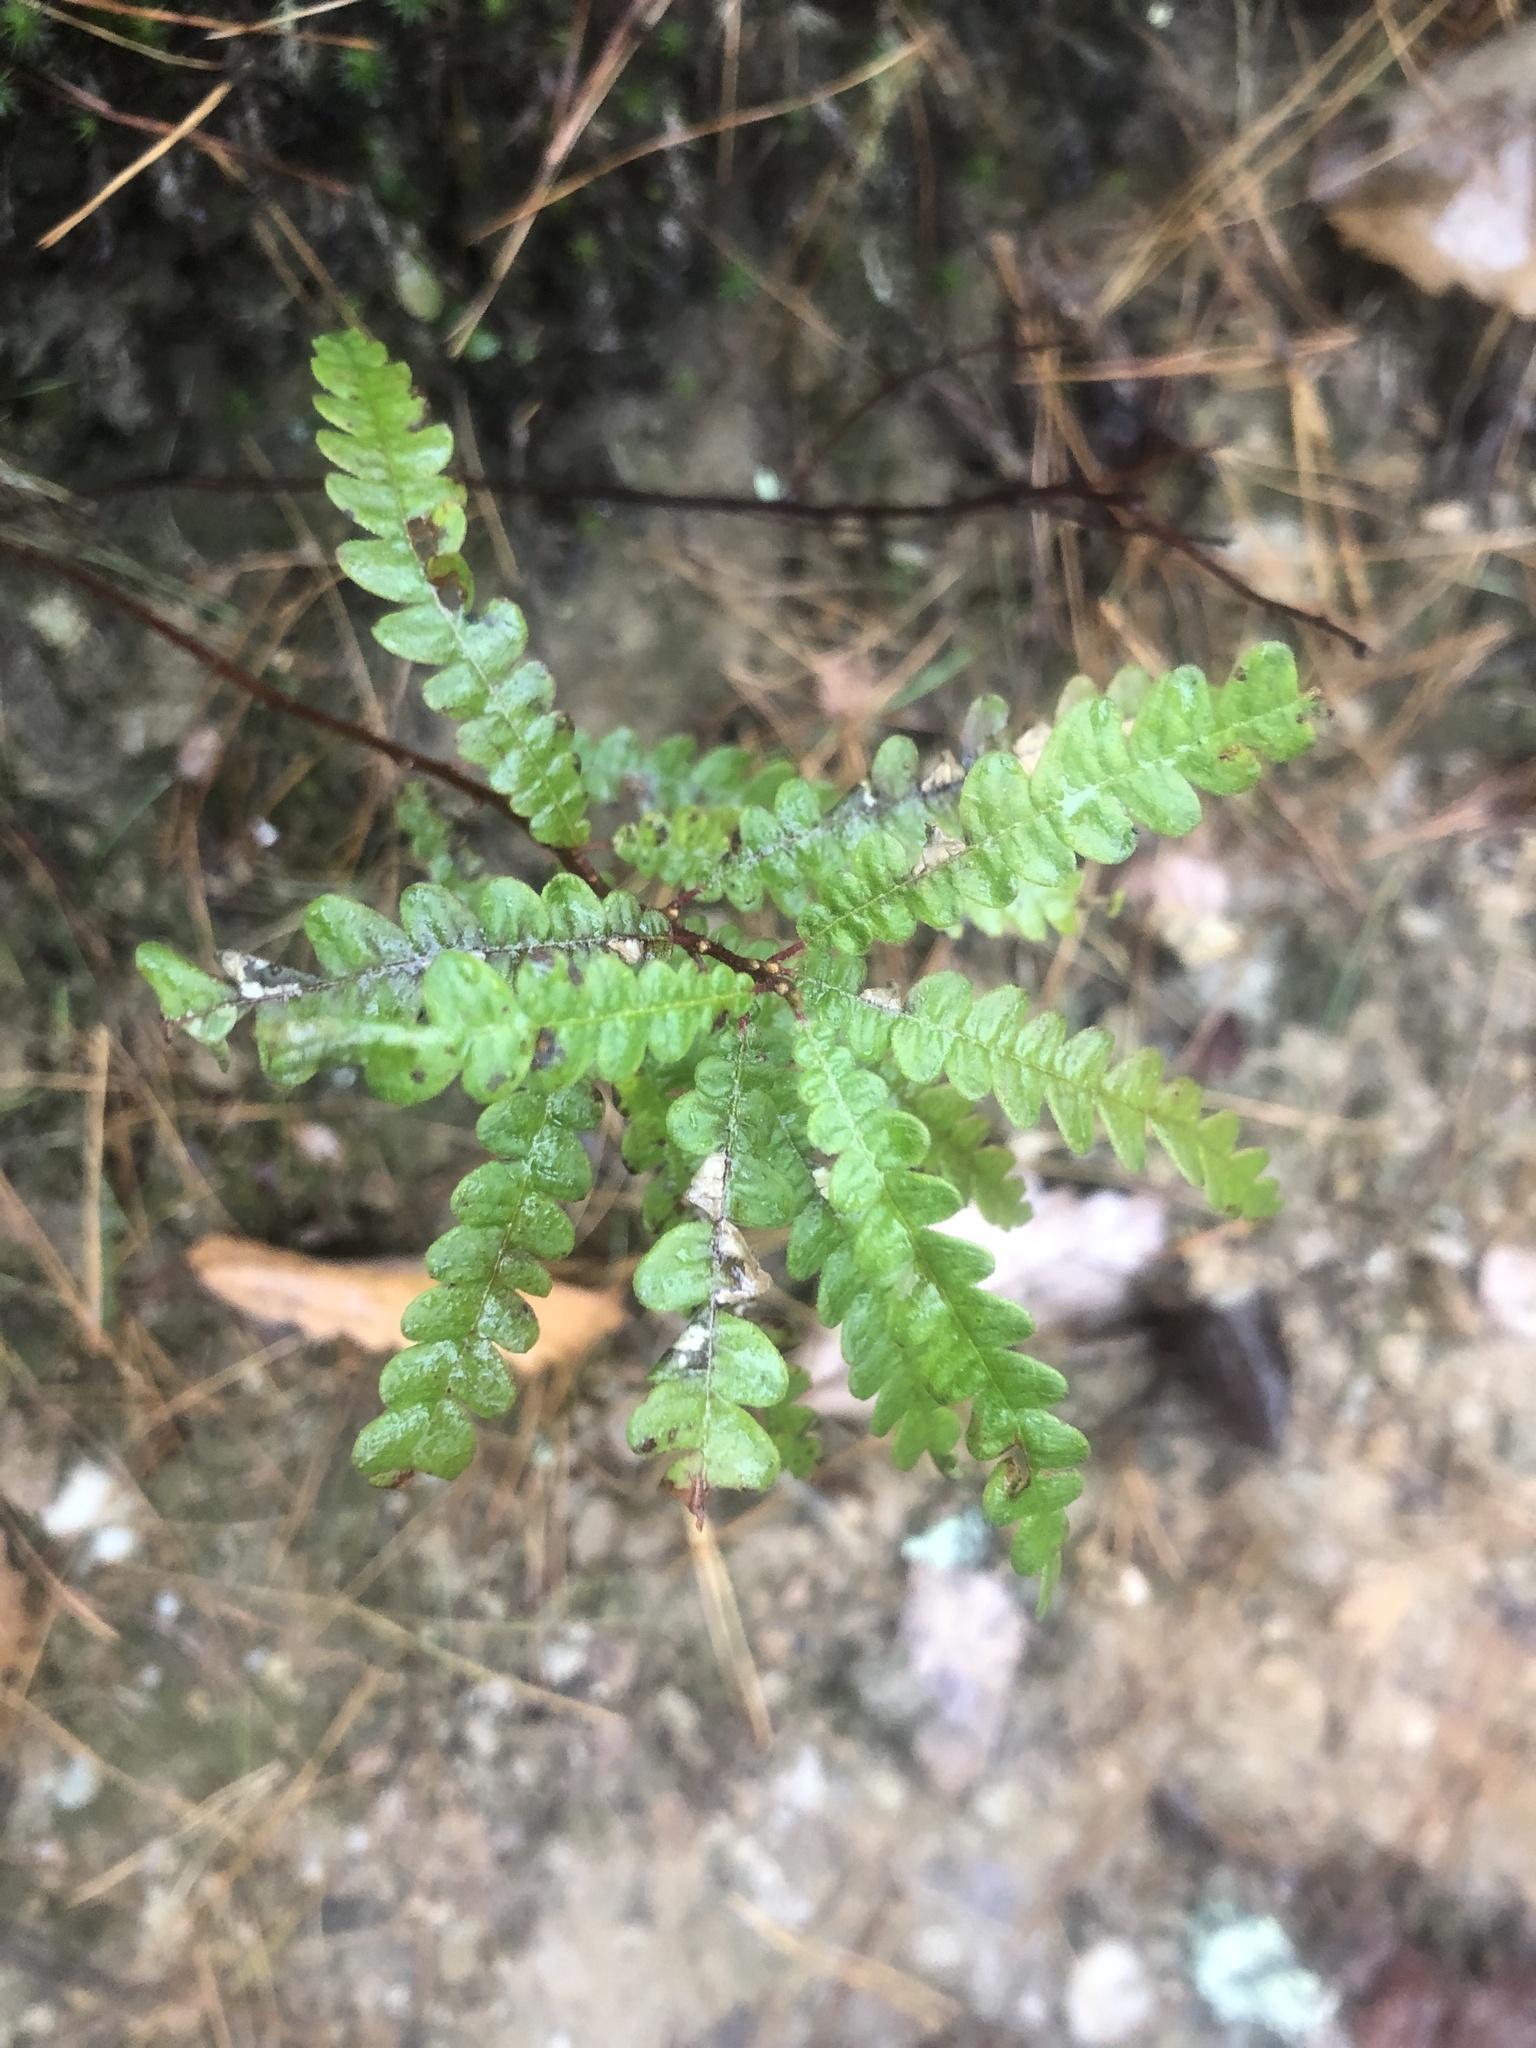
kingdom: Plantae
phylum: Tracheophyta
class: Magnoliopsida
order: Fagales
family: Myricaceae
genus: Comptonia
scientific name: Comptonia peregrina
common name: Sweet-fern
